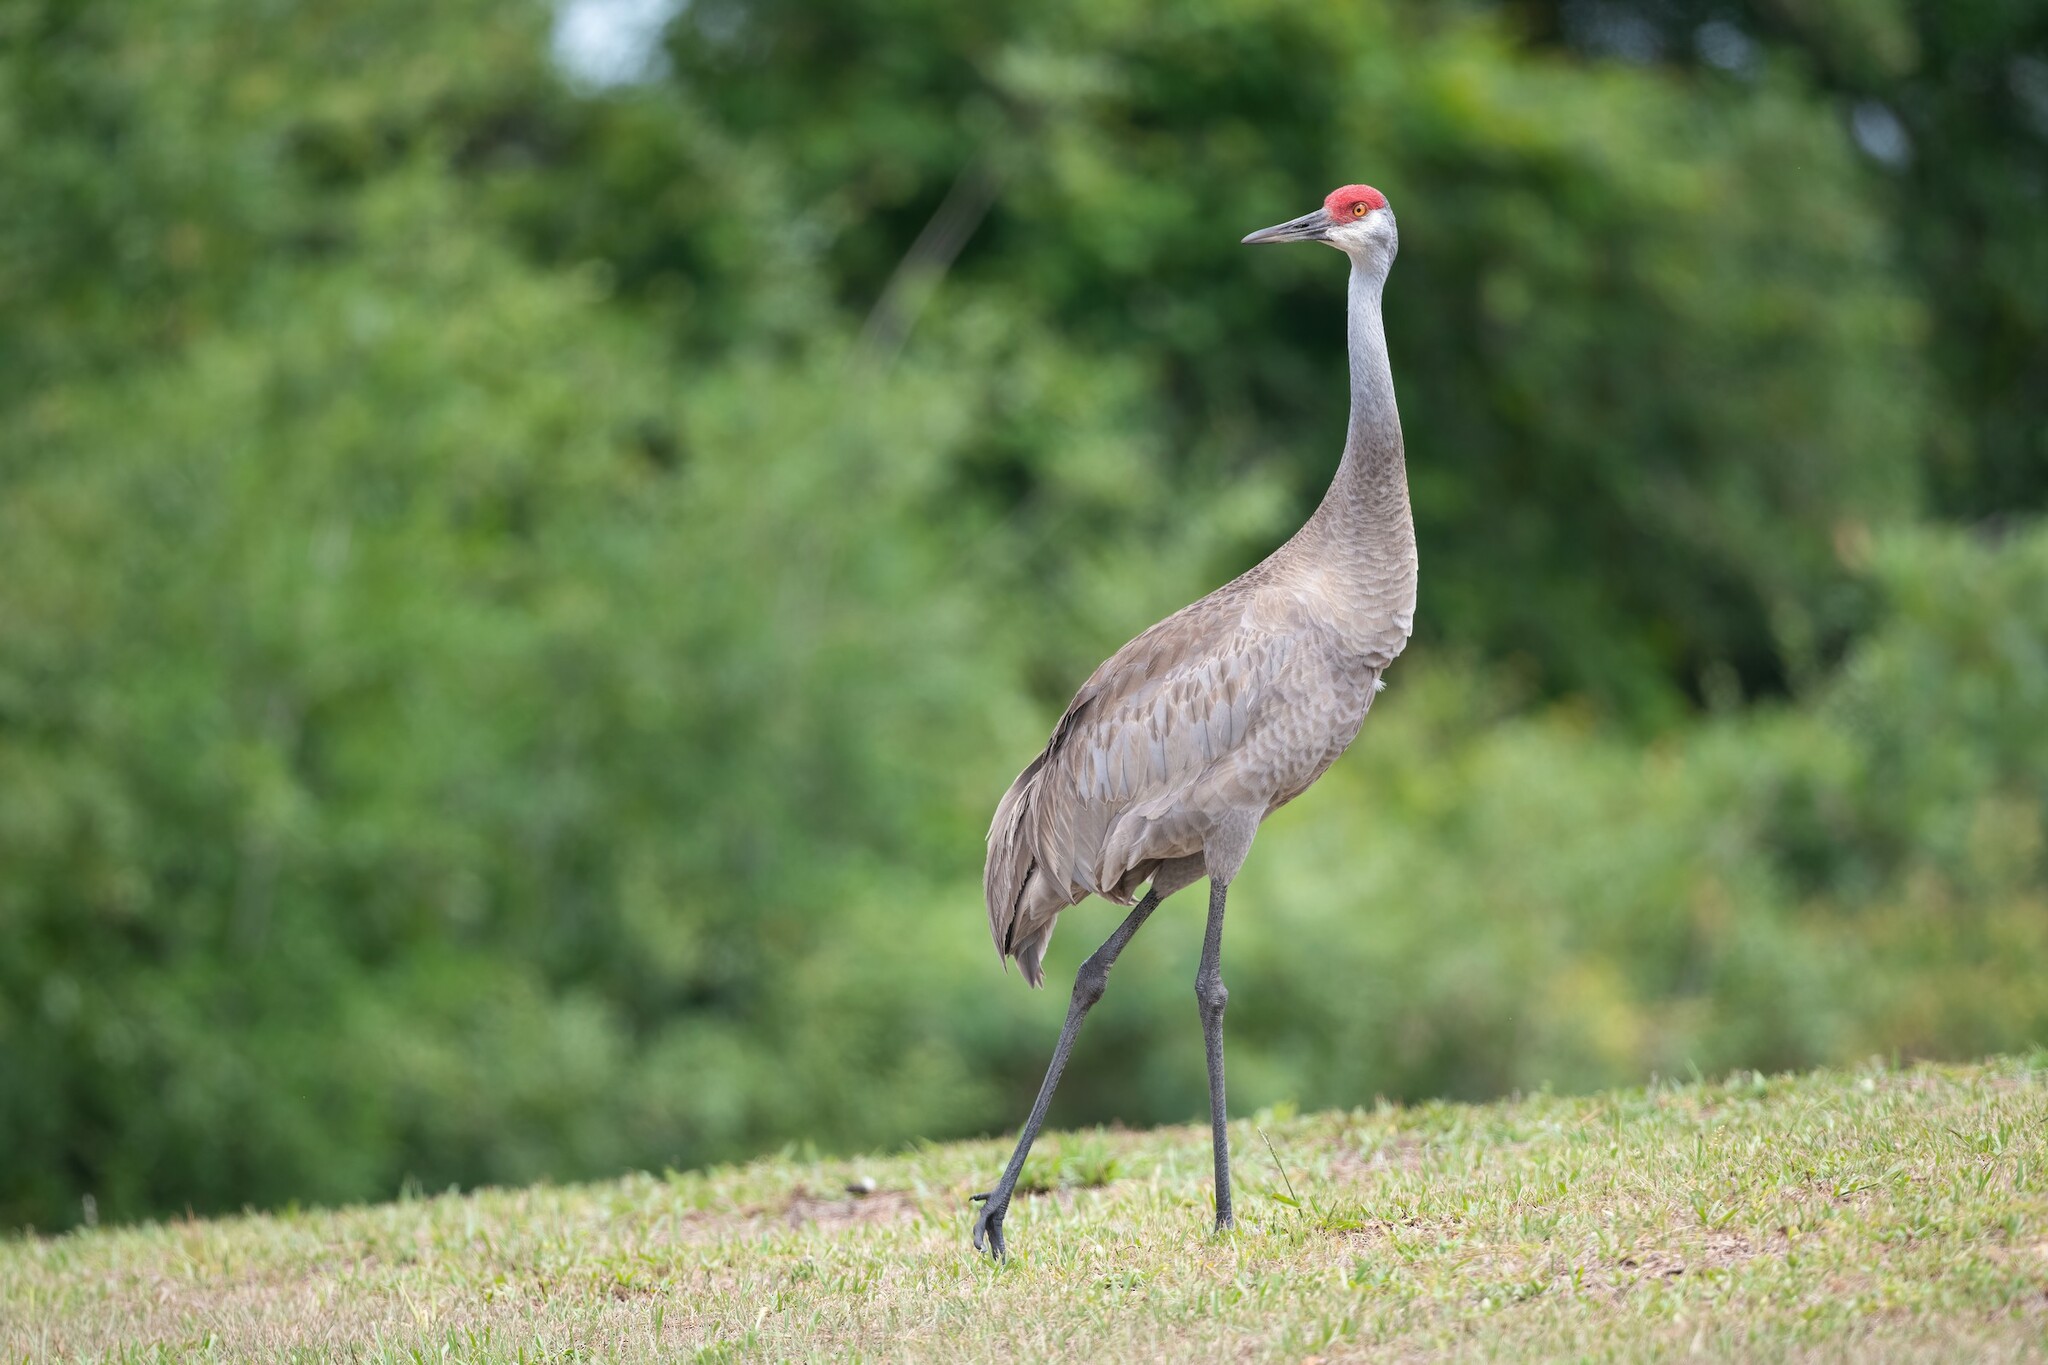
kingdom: Animalia
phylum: Chordata
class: Aves
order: Gruiformes
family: Gruidae
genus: Grus
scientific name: Grus canadensis
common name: Sandhill crane
